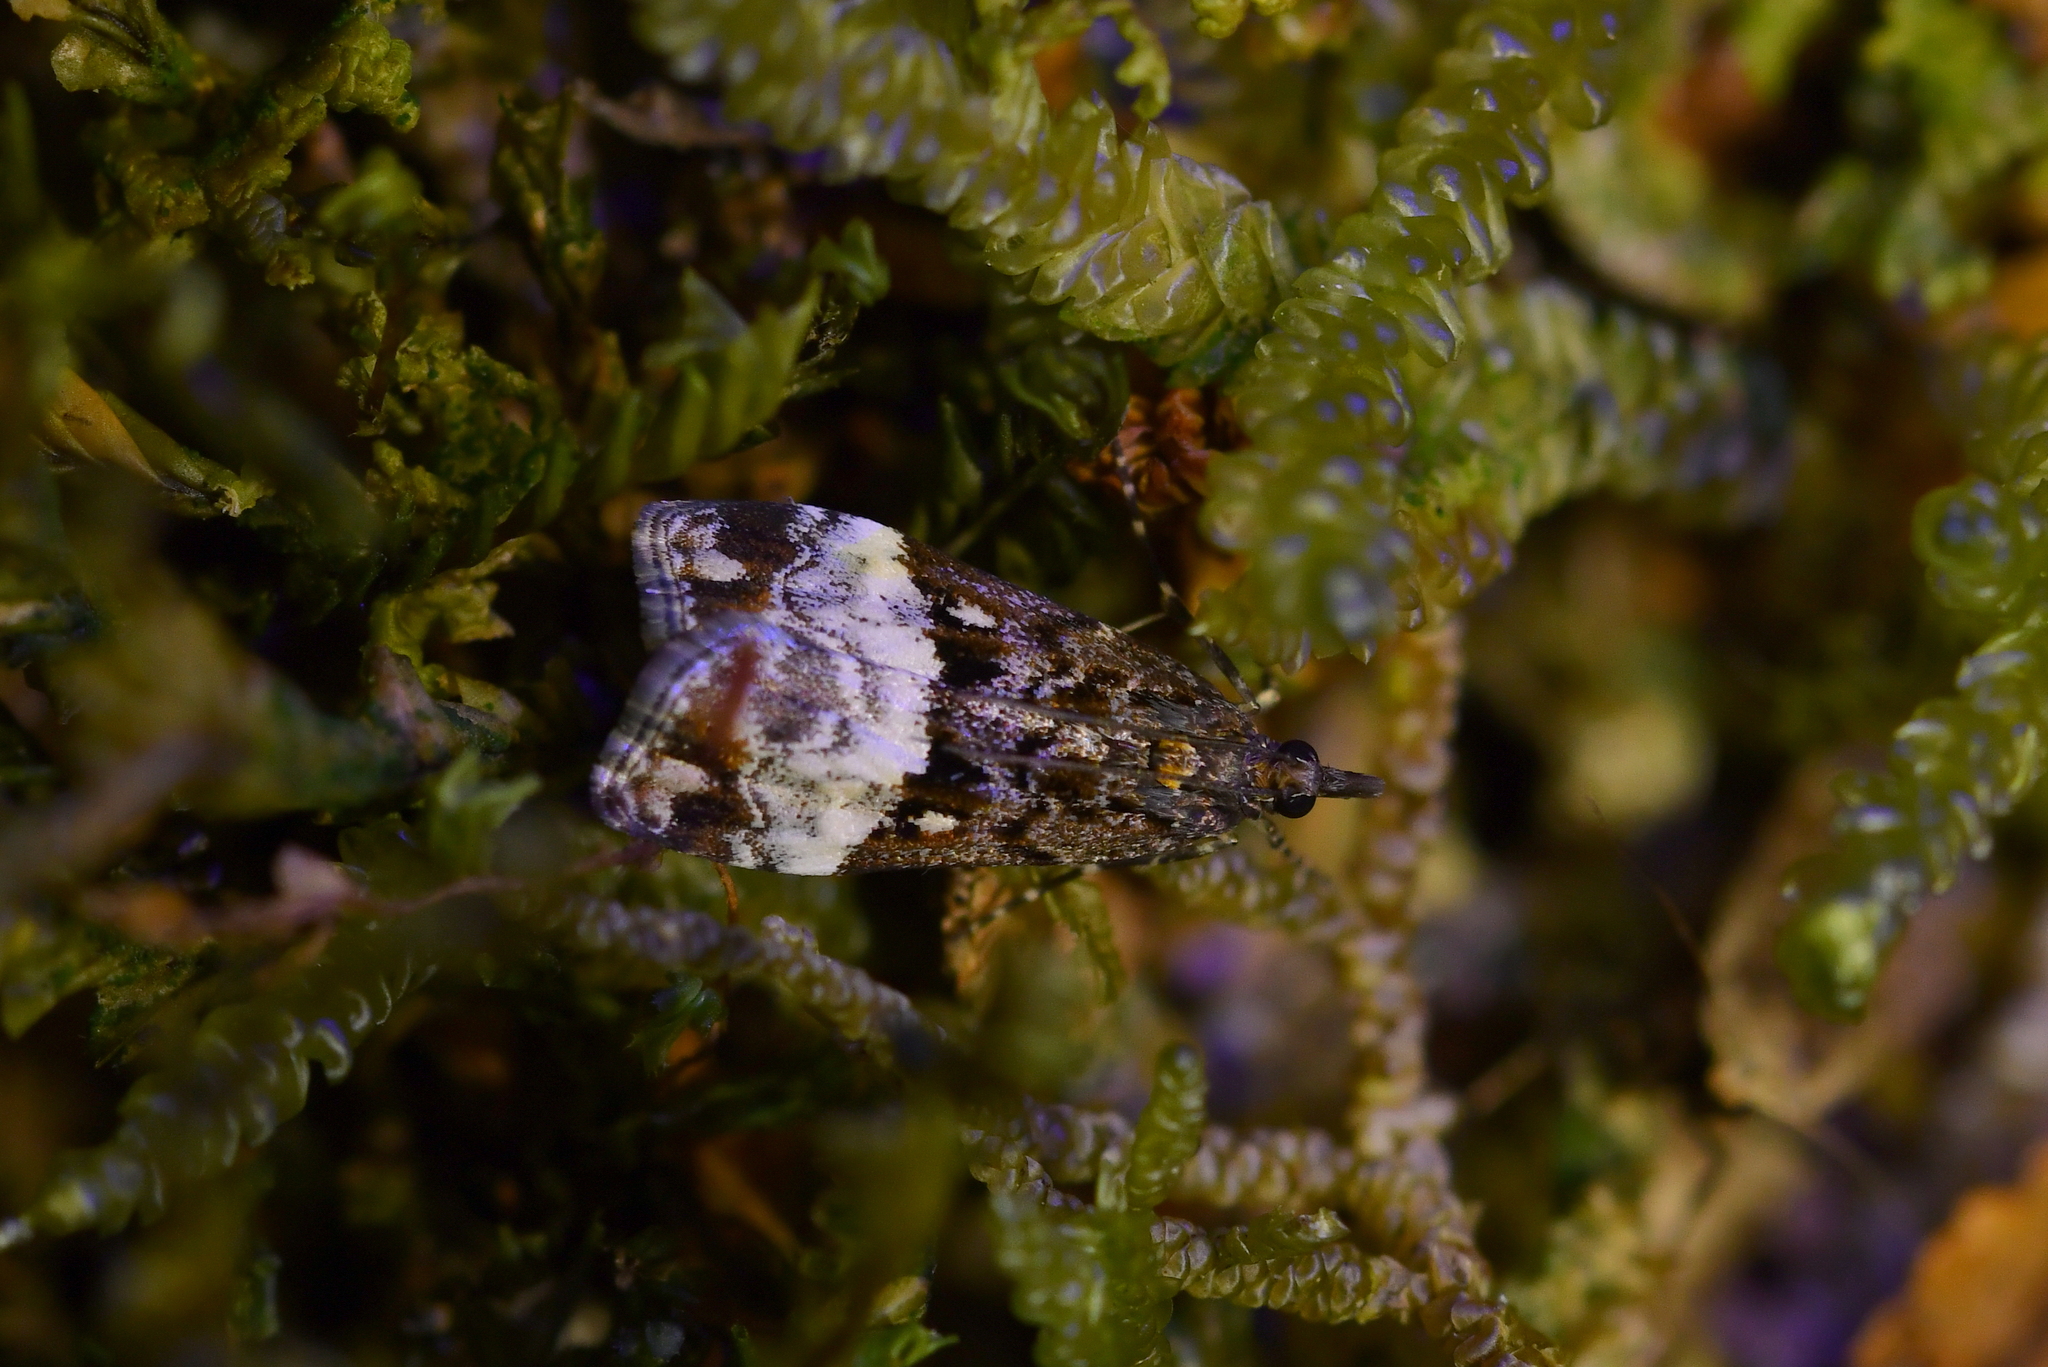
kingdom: Animalia
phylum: Arthropoda
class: Insecta
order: Lepidoptera
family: Crambidae
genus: Scoparia
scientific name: Scoparia minusculalis
